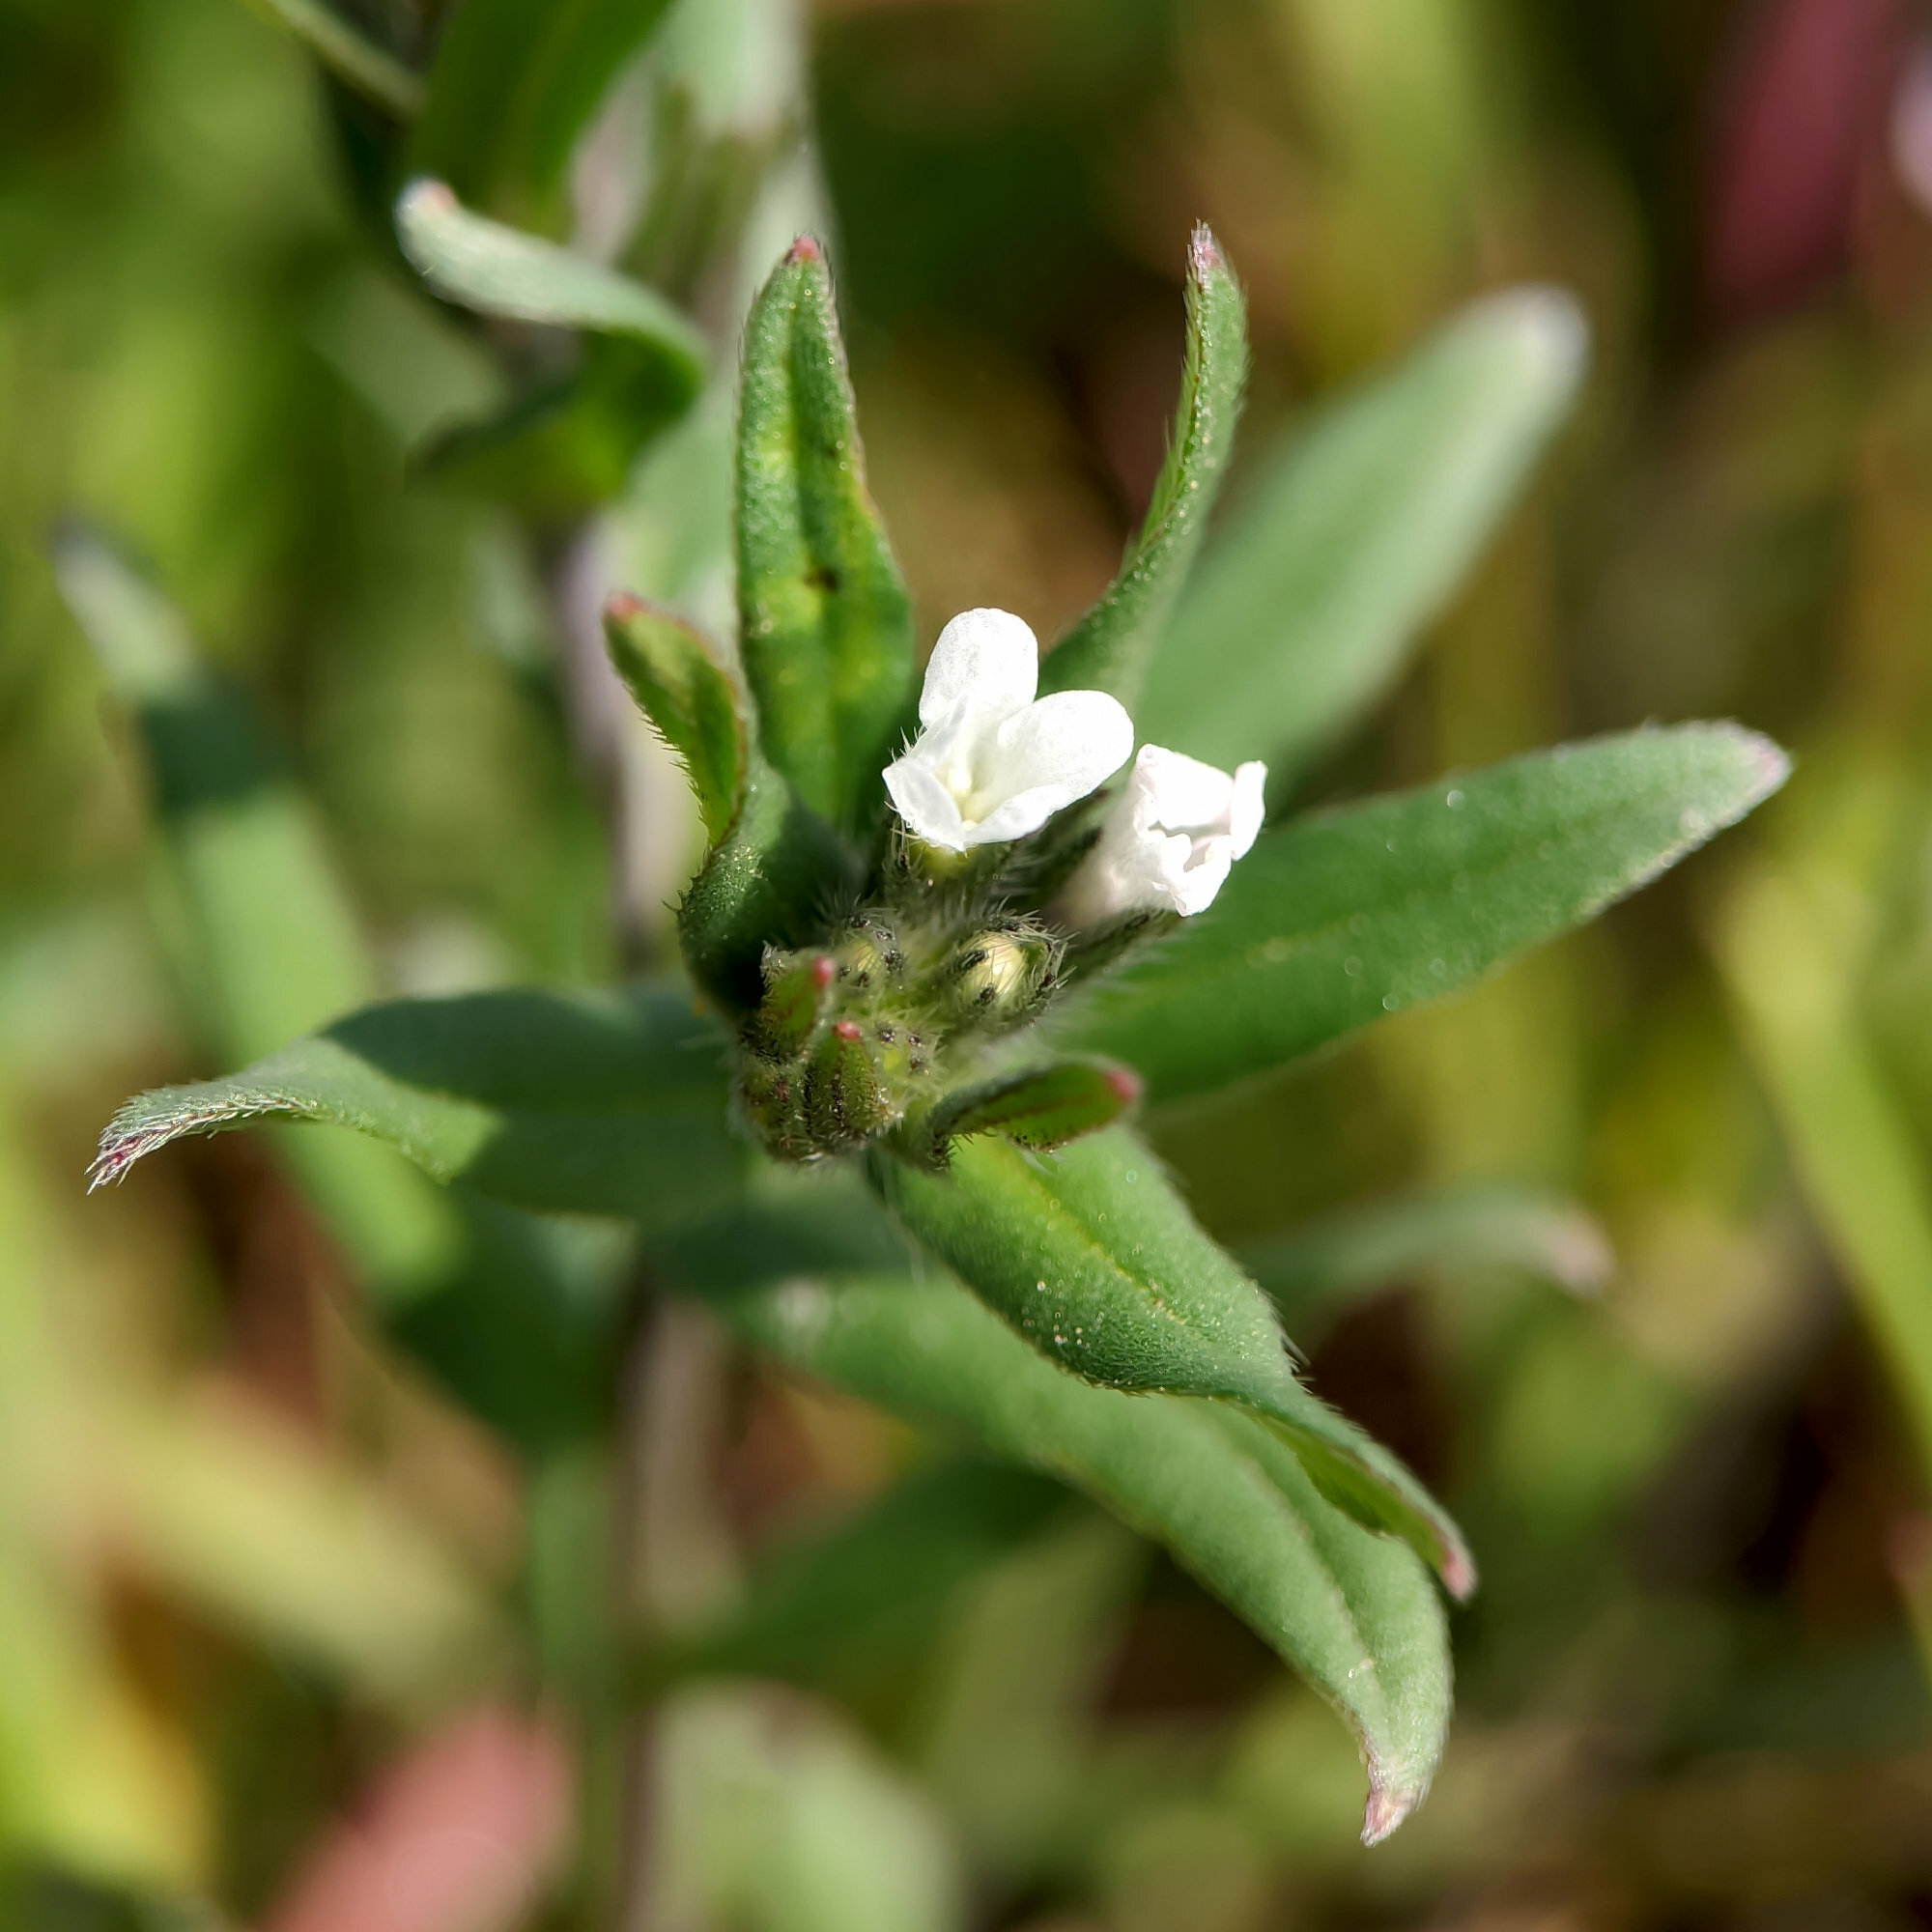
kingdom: Plantae
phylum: Tracheophyta
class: Magnoliopsida
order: Boraginales
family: Boraginaceae
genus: Buglossoides
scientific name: Buglossoides arvensis
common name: Corn gromwell
